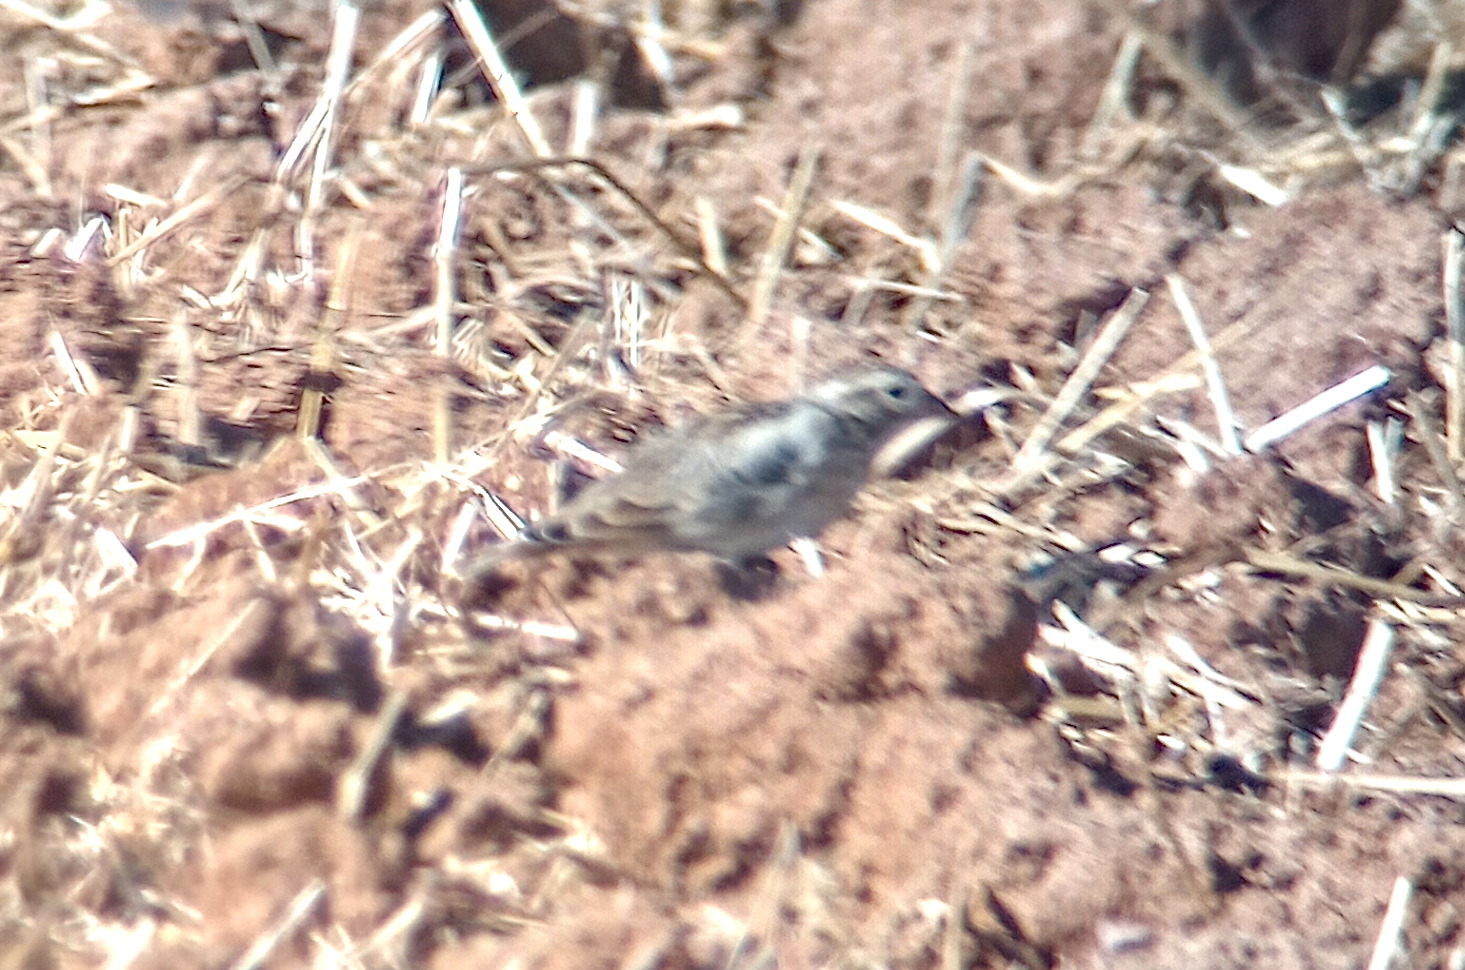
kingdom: Animalia
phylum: Chordata
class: Aves
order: Passeriformes
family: Calcariidae
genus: Rhynchophanes
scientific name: Rhynchophanes mccownii
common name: Mccown's longspur
